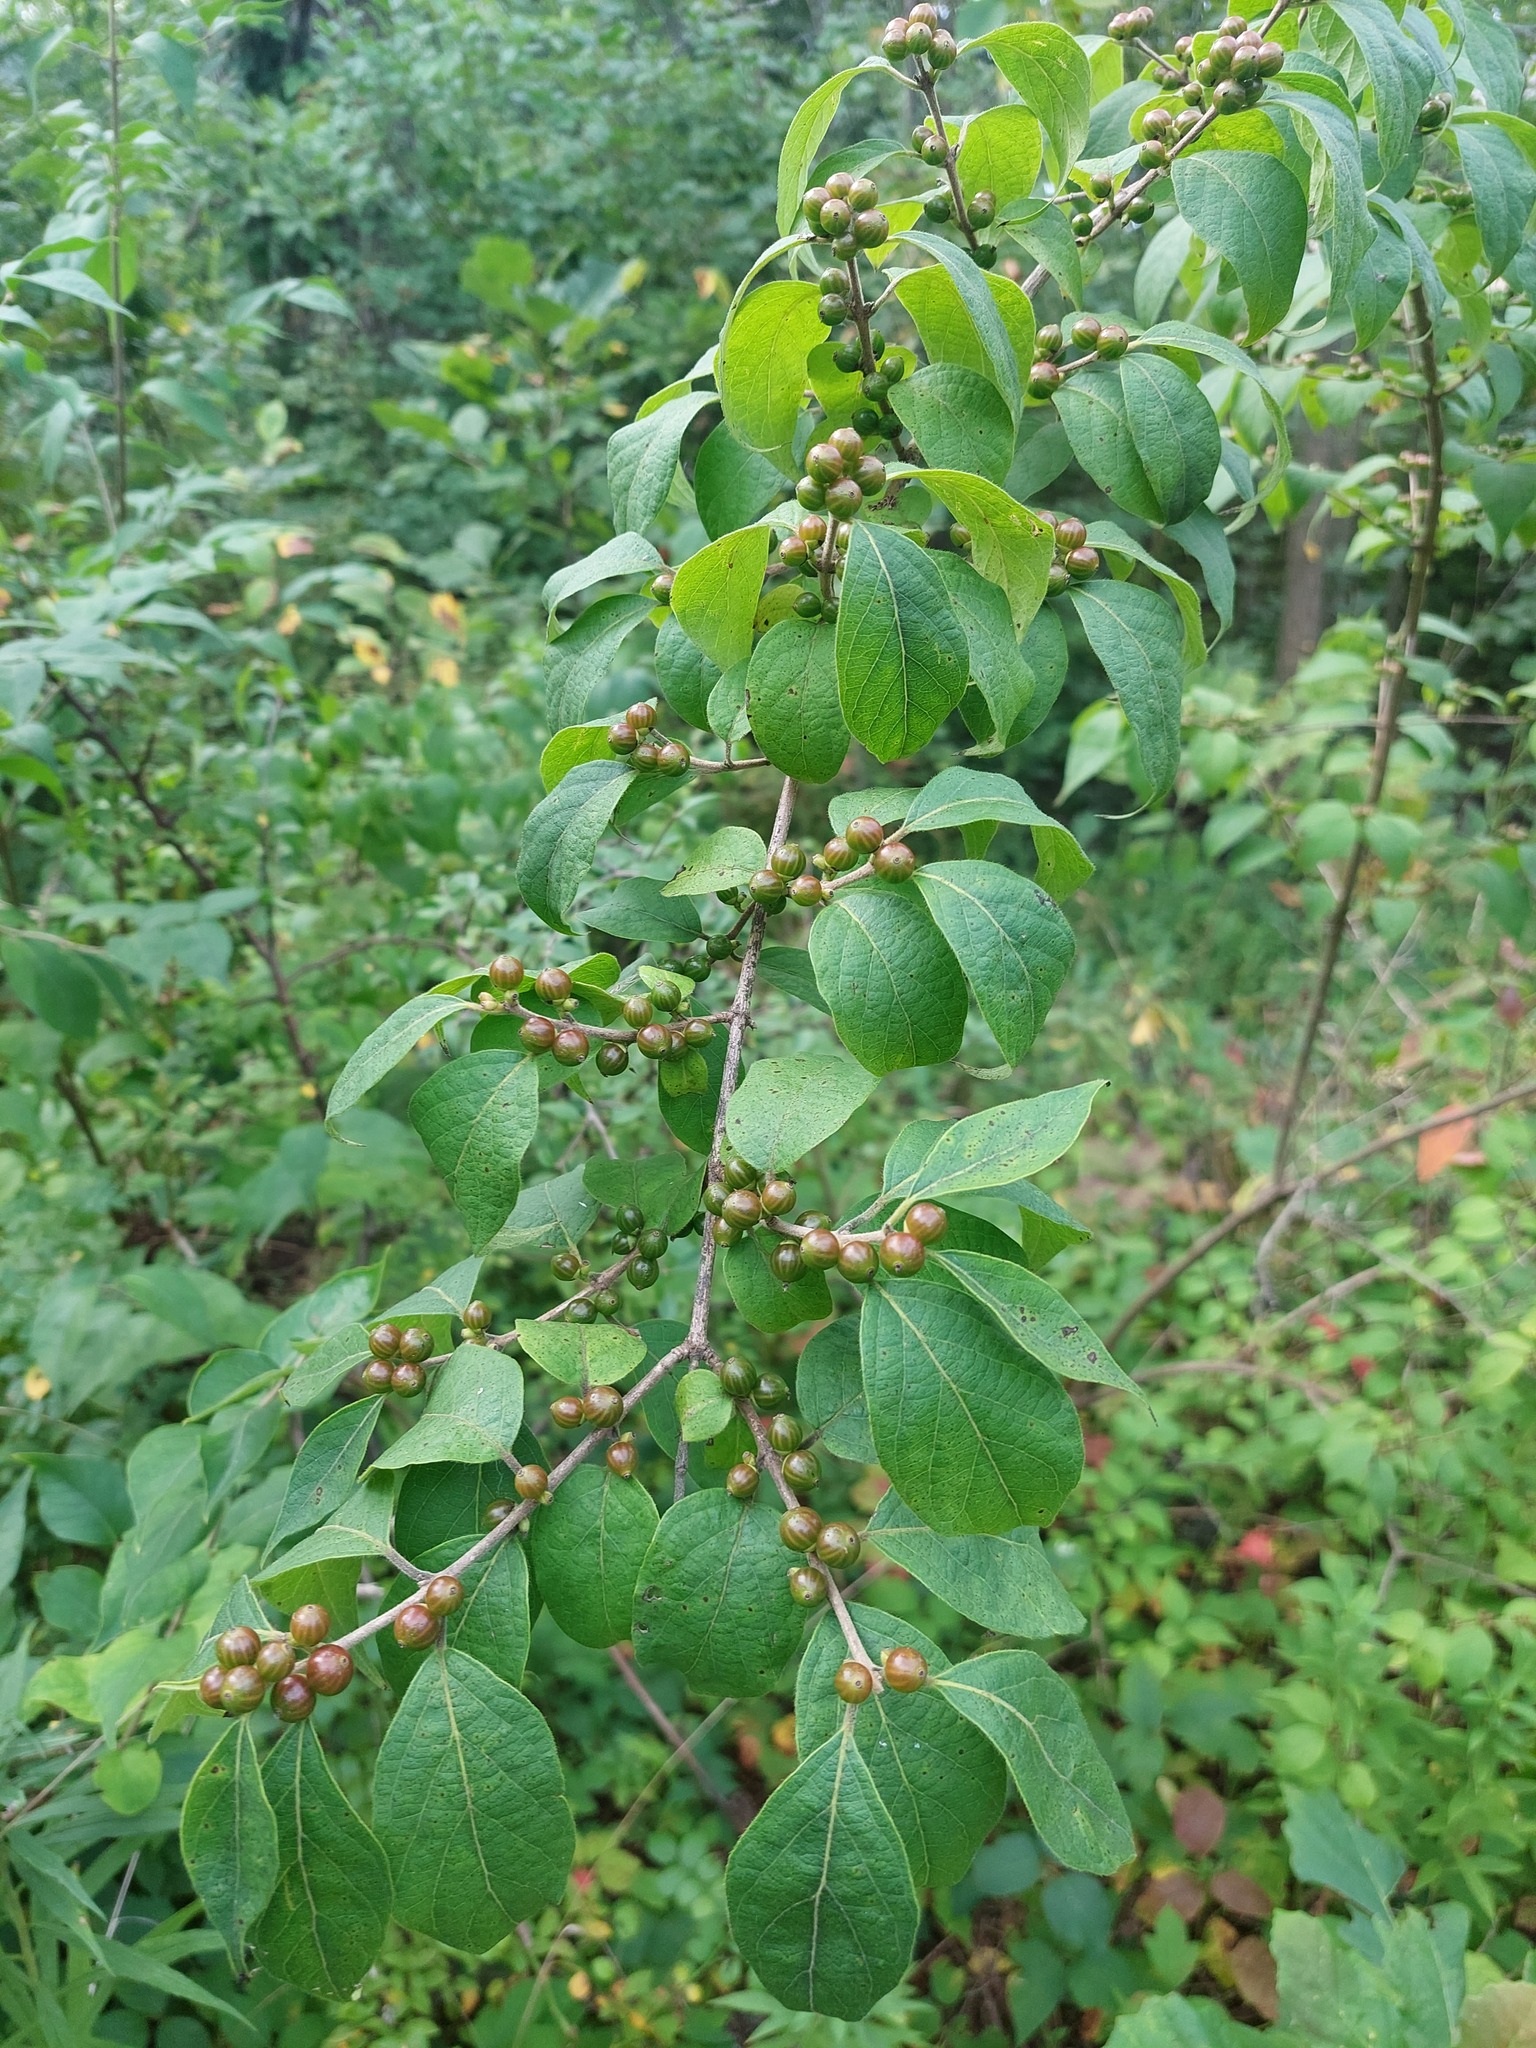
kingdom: Plantae
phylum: Tracheophyta
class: Magnoliopsida
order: Dipsacales
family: Caprifoliaceae
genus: Lonicera
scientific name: Lonicera maackii
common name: Amur honeysuckle
